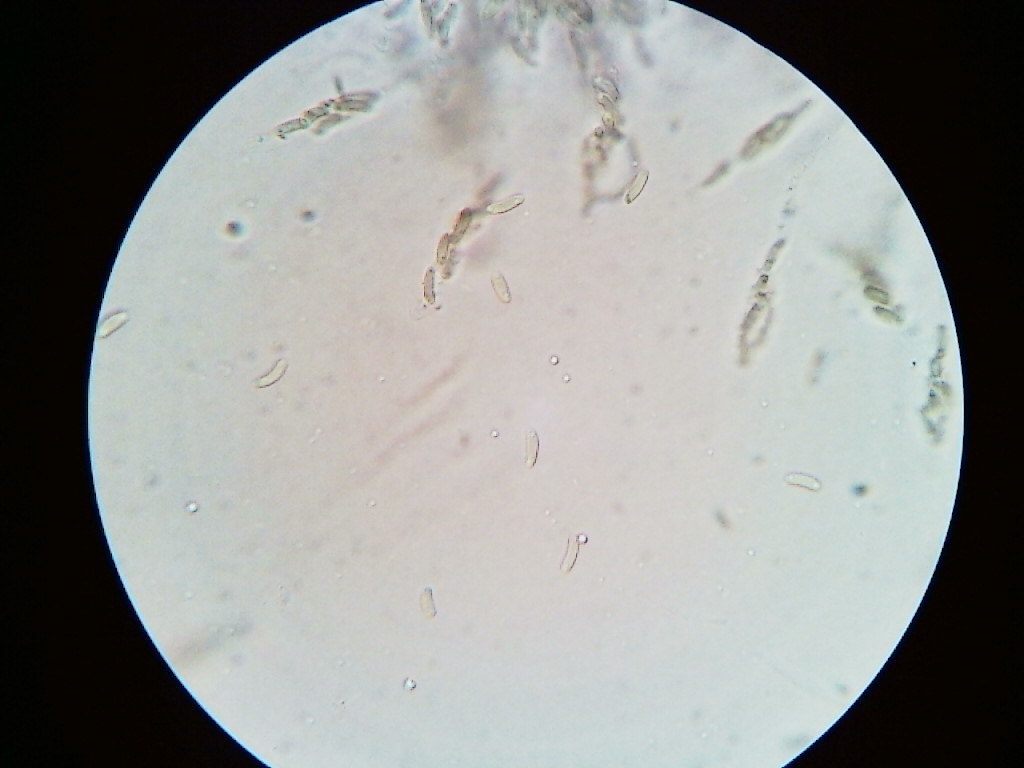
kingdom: Fungi
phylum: Ascomycota
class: Sordariomycetes
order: Xylariales
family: Diatrypaceae
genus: Eutypa
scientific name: Eutypa spinosa
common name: Spiral tarcrust
